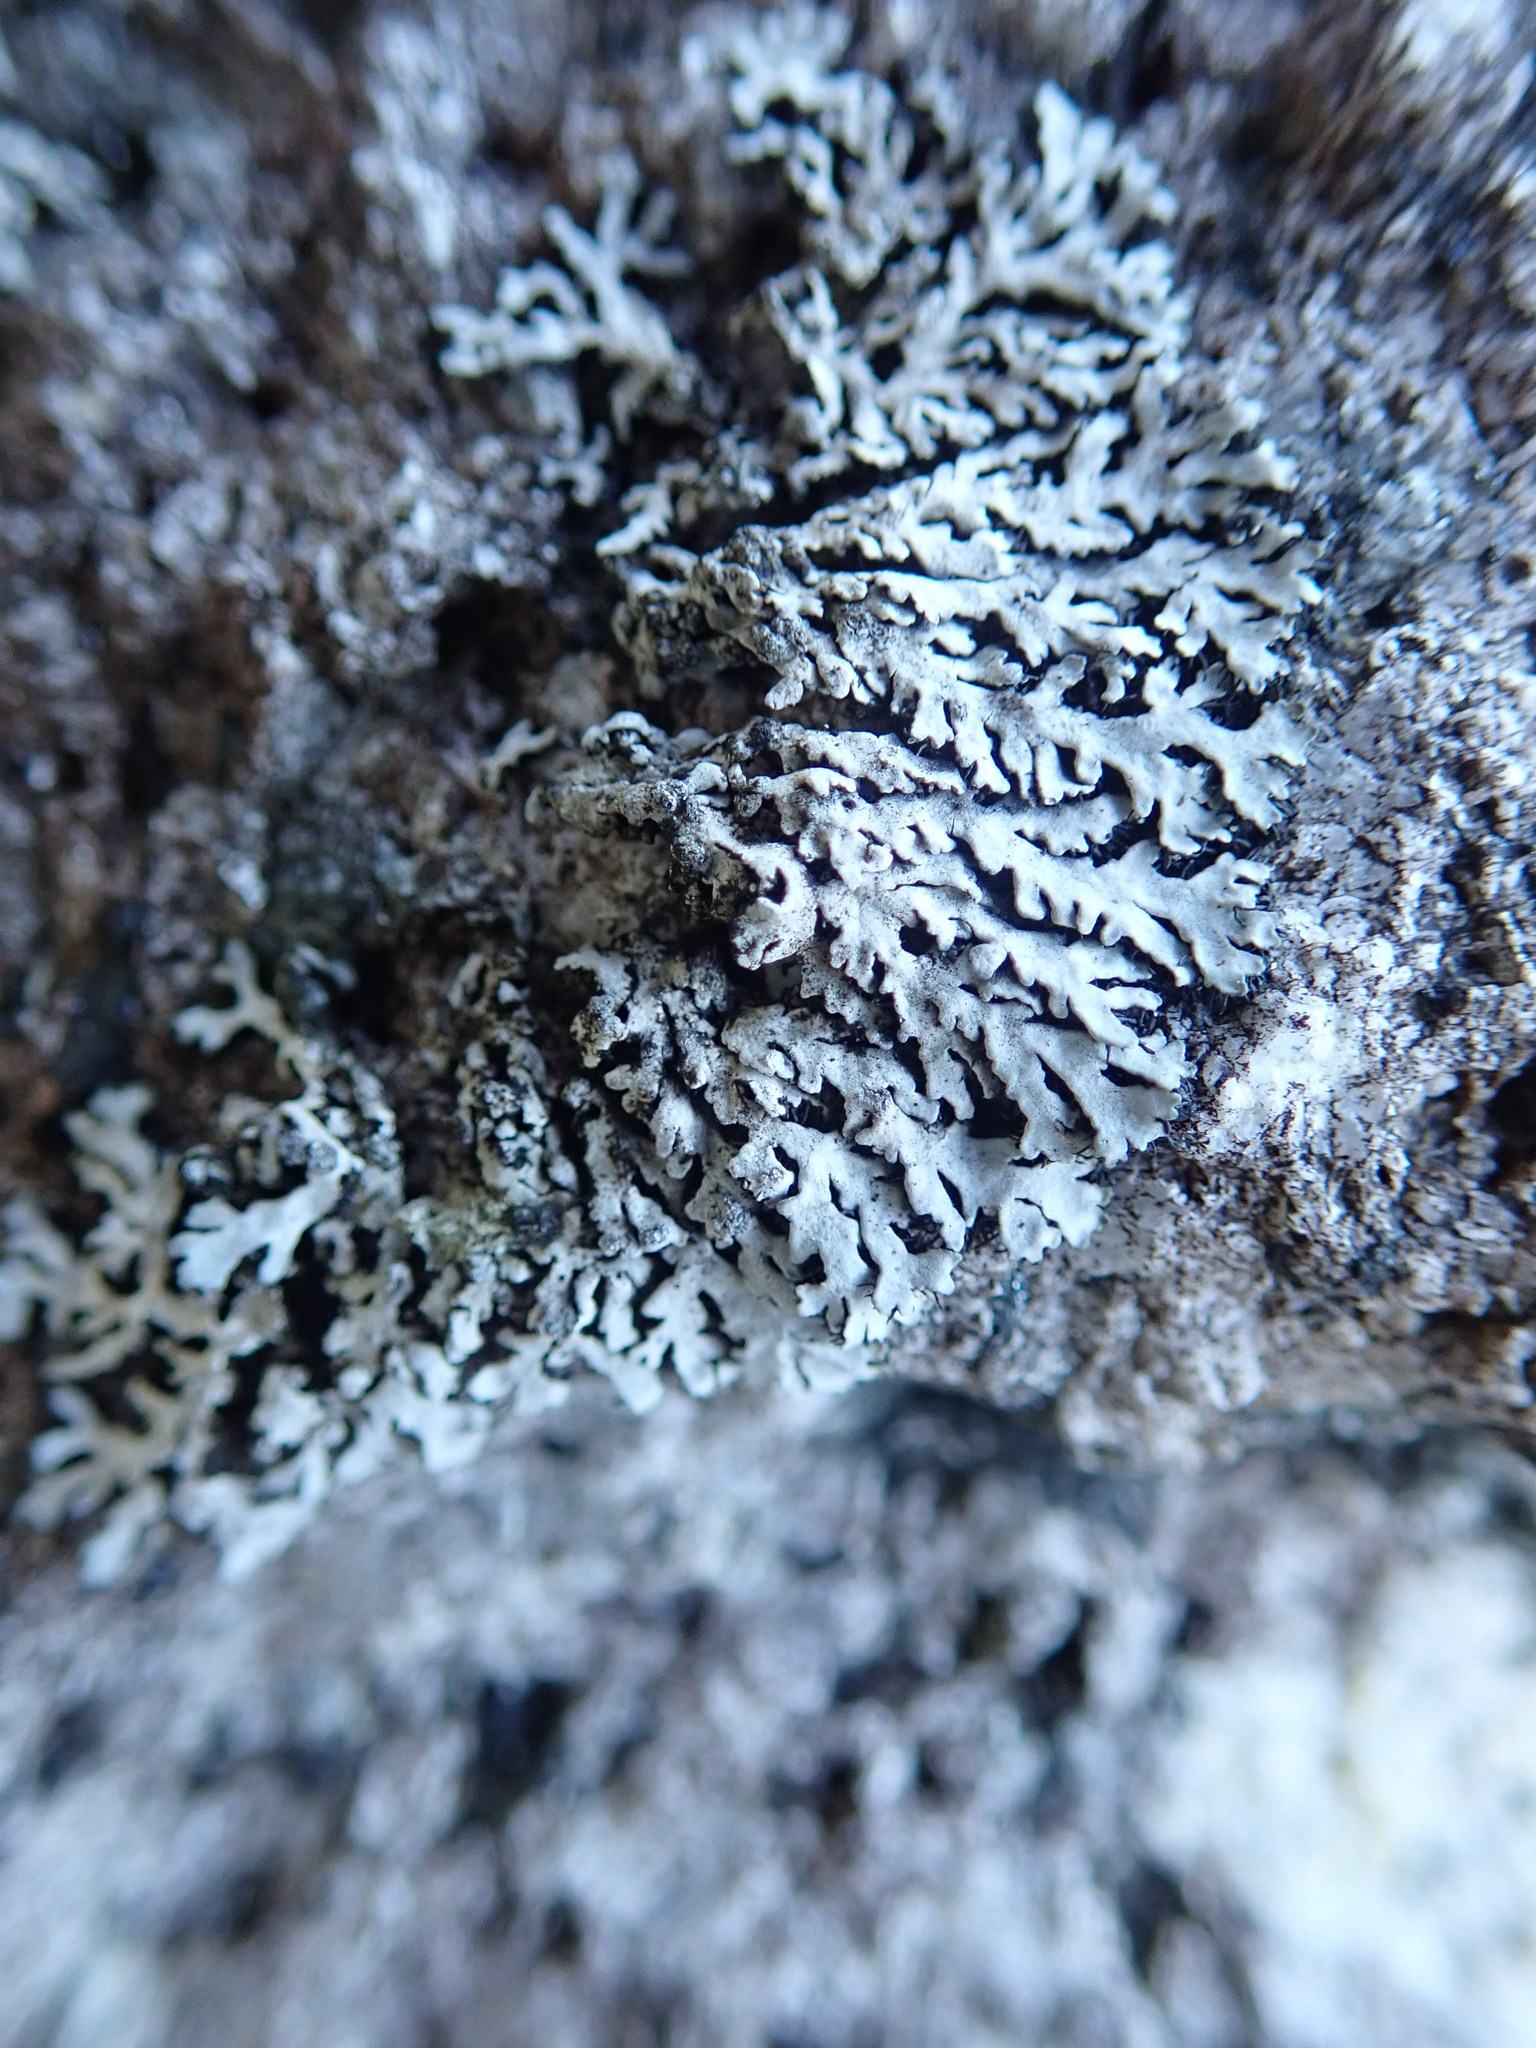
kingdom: Fungi
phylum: Ascomycota
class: Lecanoromycetes
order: Caliciales
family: Physciaceae
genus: Physcia
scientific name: Physcia caesia
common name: Blue-gray rosette lichen
